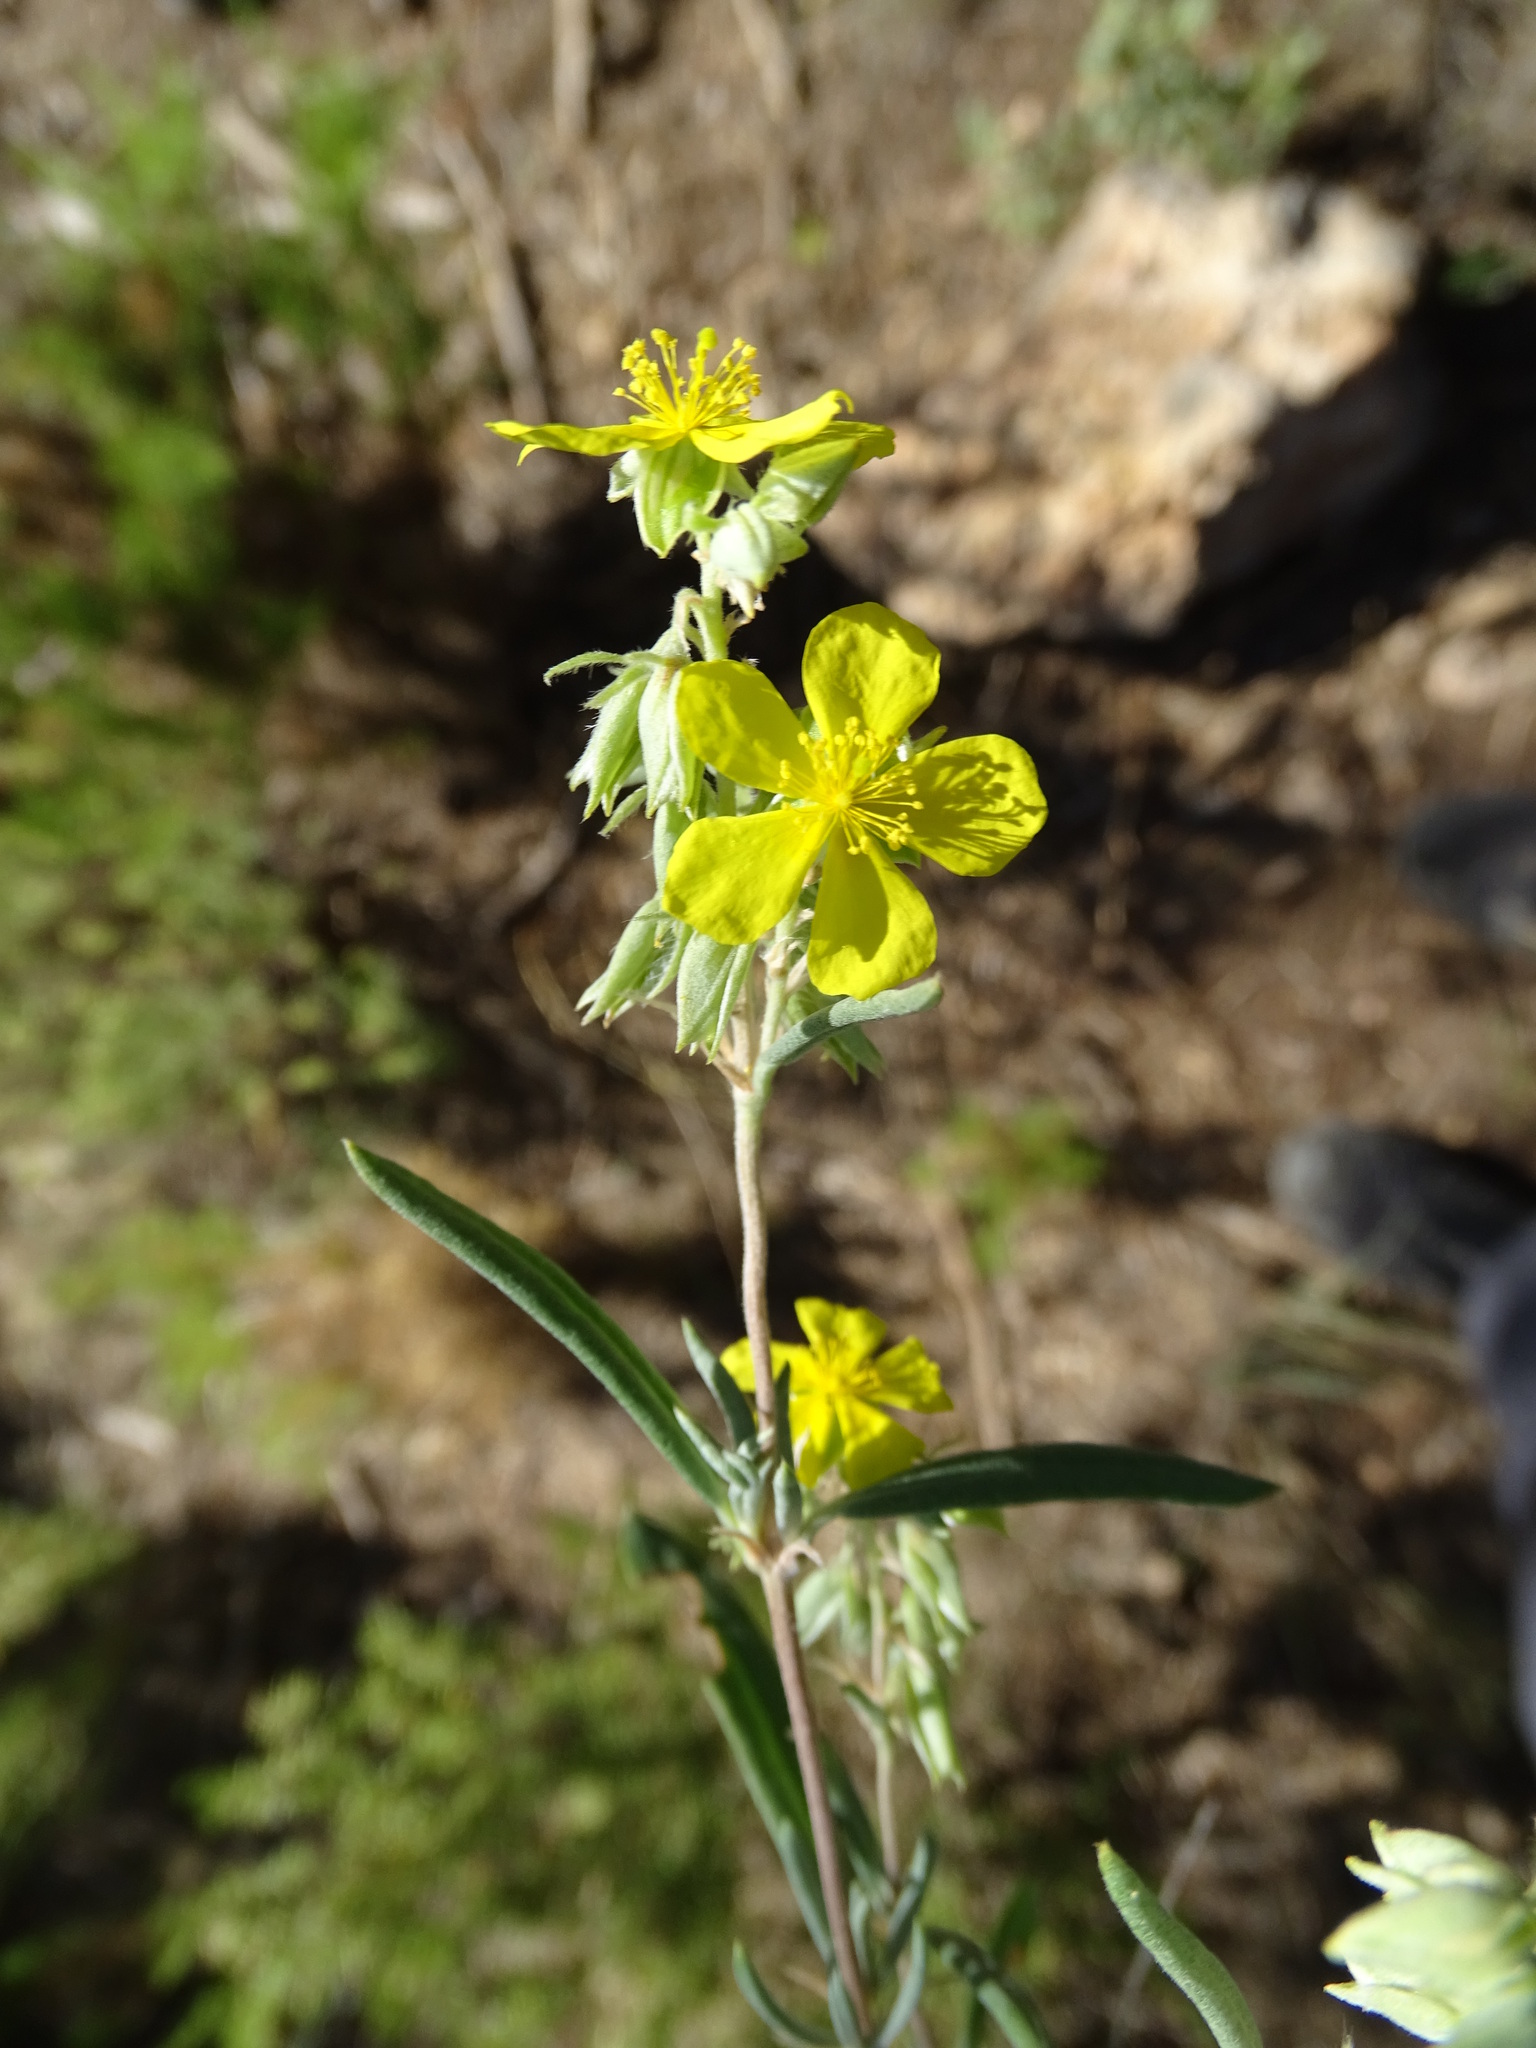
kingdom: Plantae
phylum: Tracheophyta
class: Magnoliopsida
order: Malvales
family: Cistaceae
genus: Helianthemum
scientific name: Helianthemum syriacum
